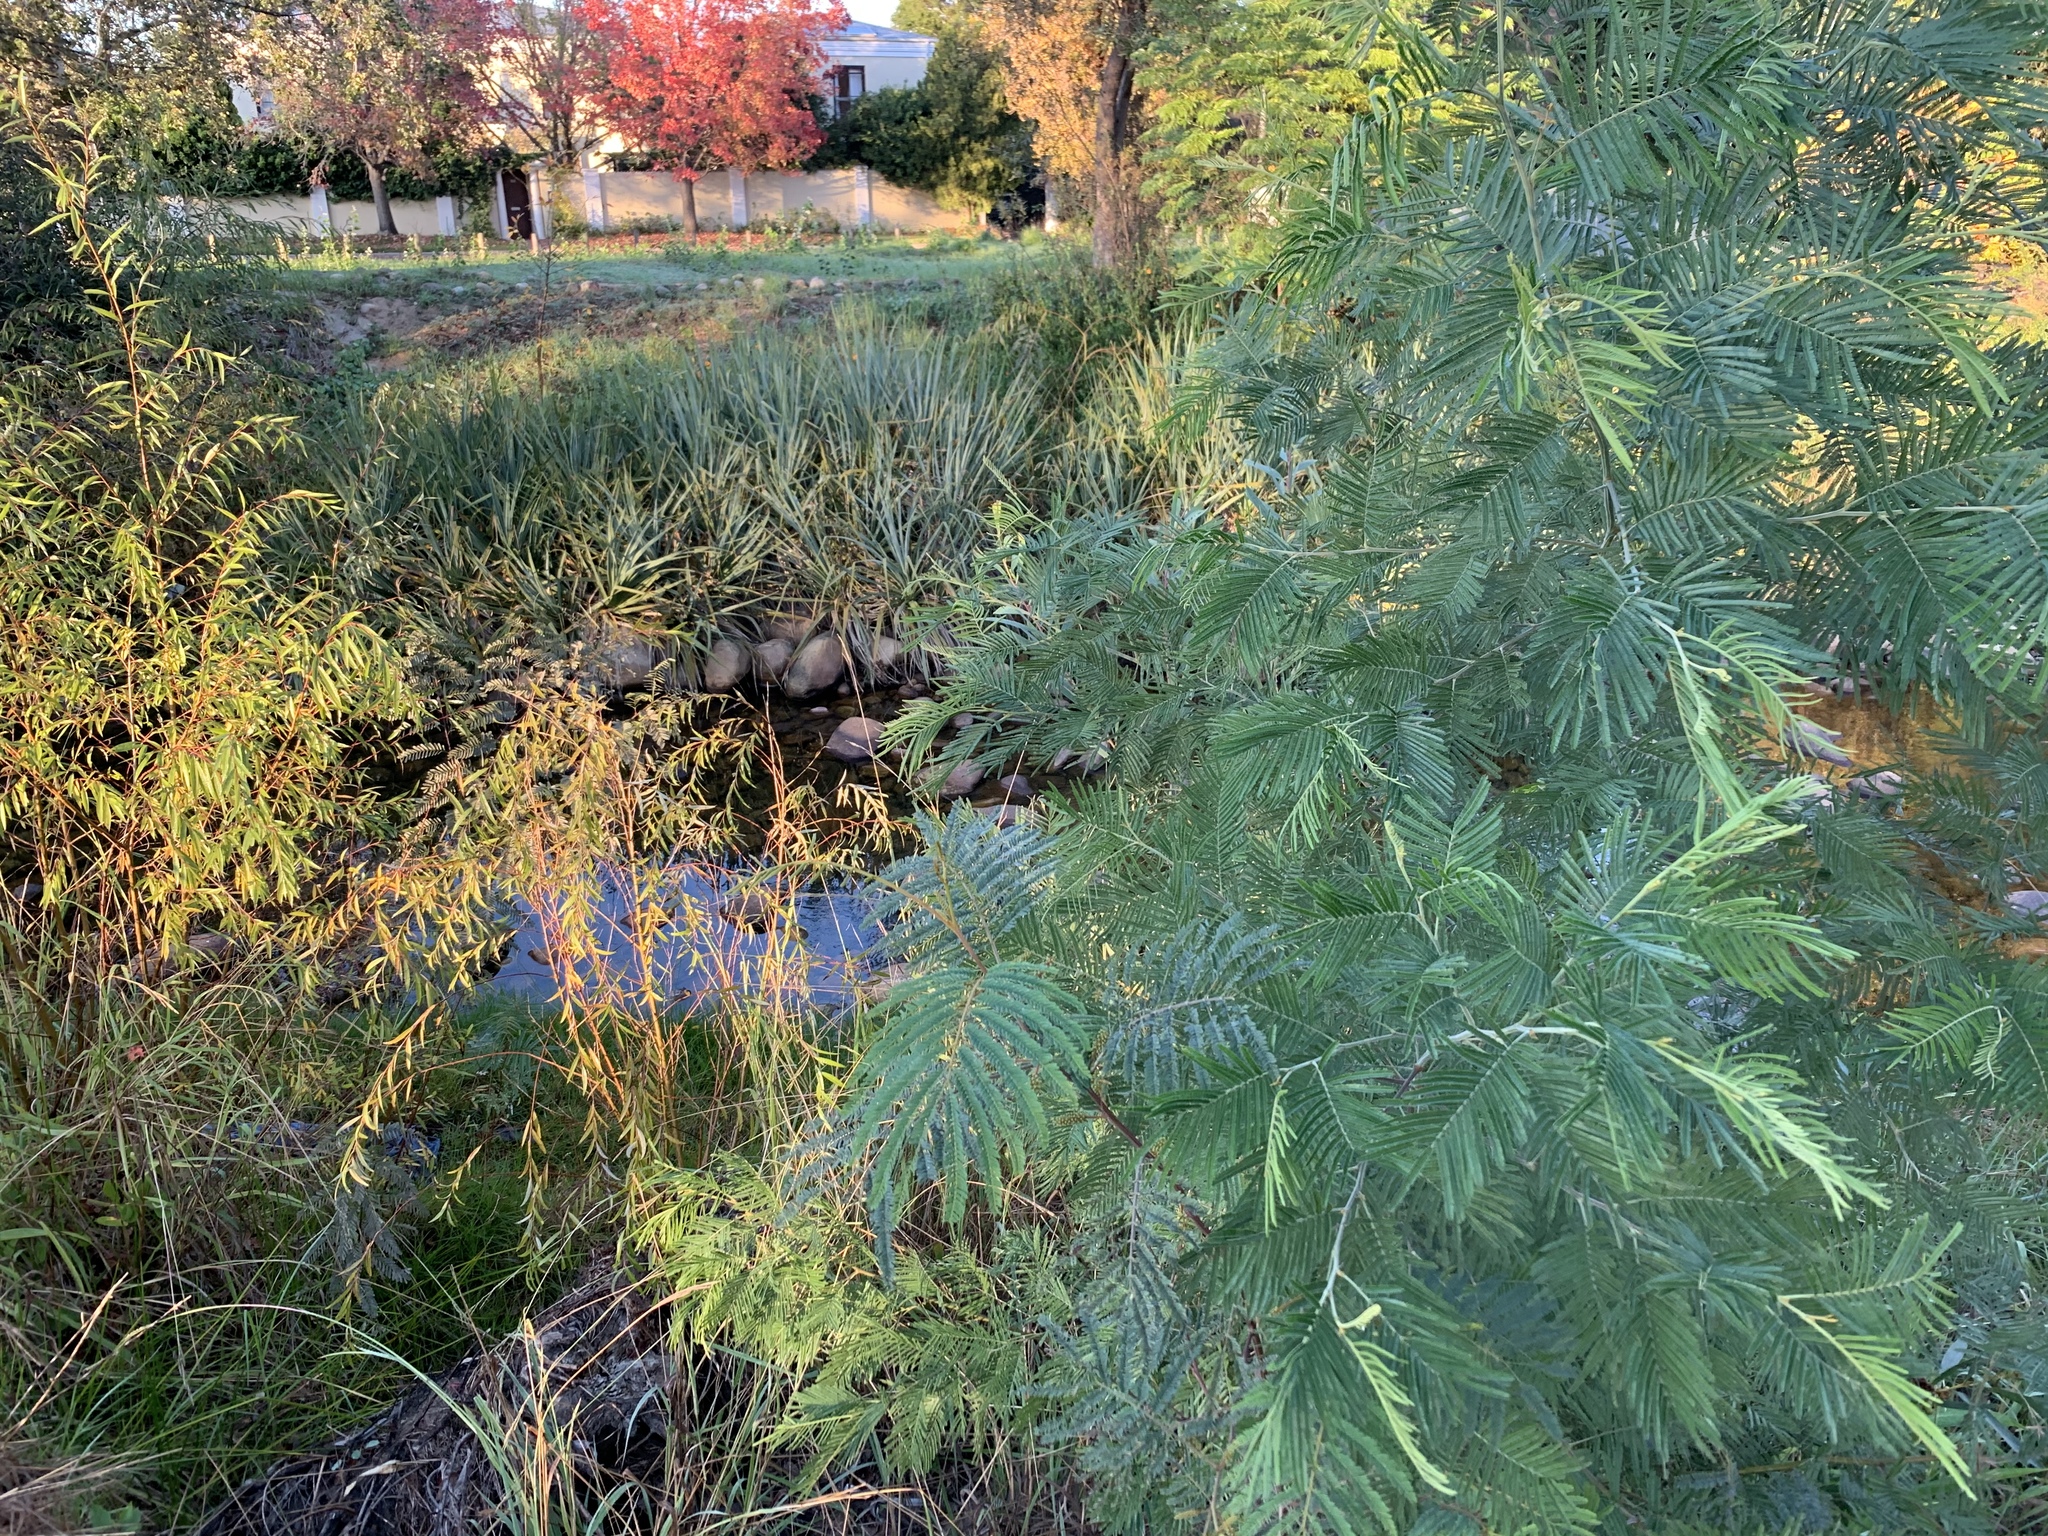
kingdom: Plantae
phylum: Tracheophyta
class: Magnoliopsida
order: Fabales
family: Fabaceae
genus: Acacia
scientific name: Acacia mearnsii
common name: Black wattle
